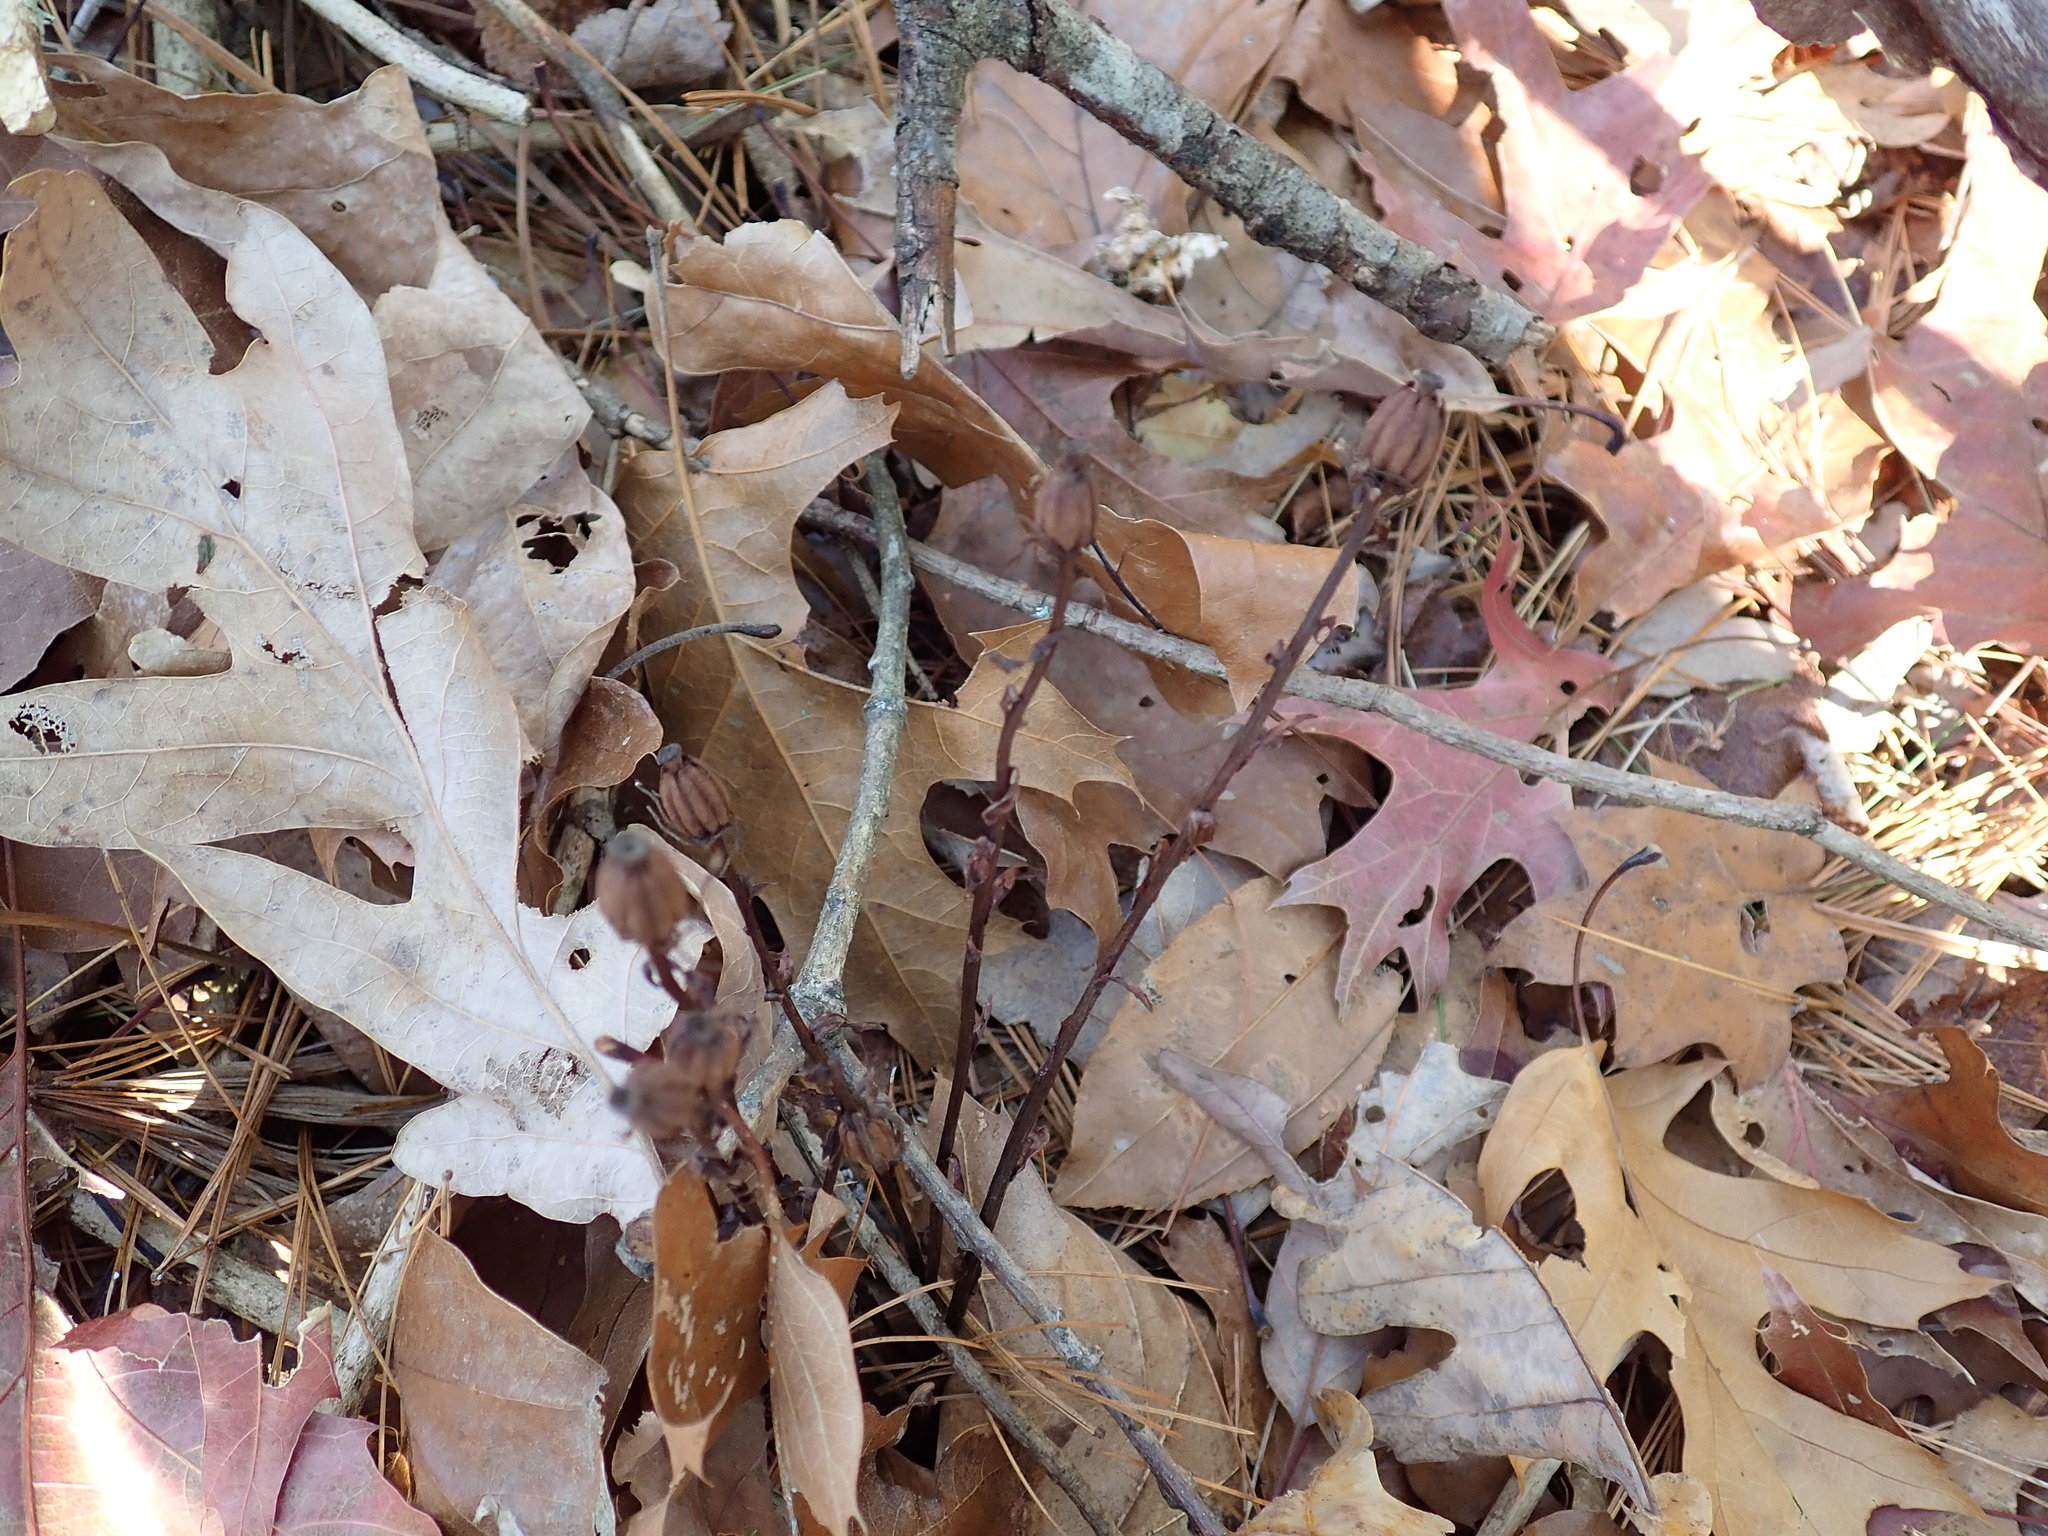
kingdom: Plantae
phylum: Tracheophyta
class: Magnoliopsida
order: Ericales
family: Ericaceae
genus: Monotropa
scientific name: Monotropa uniflora
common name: Convulsion root
